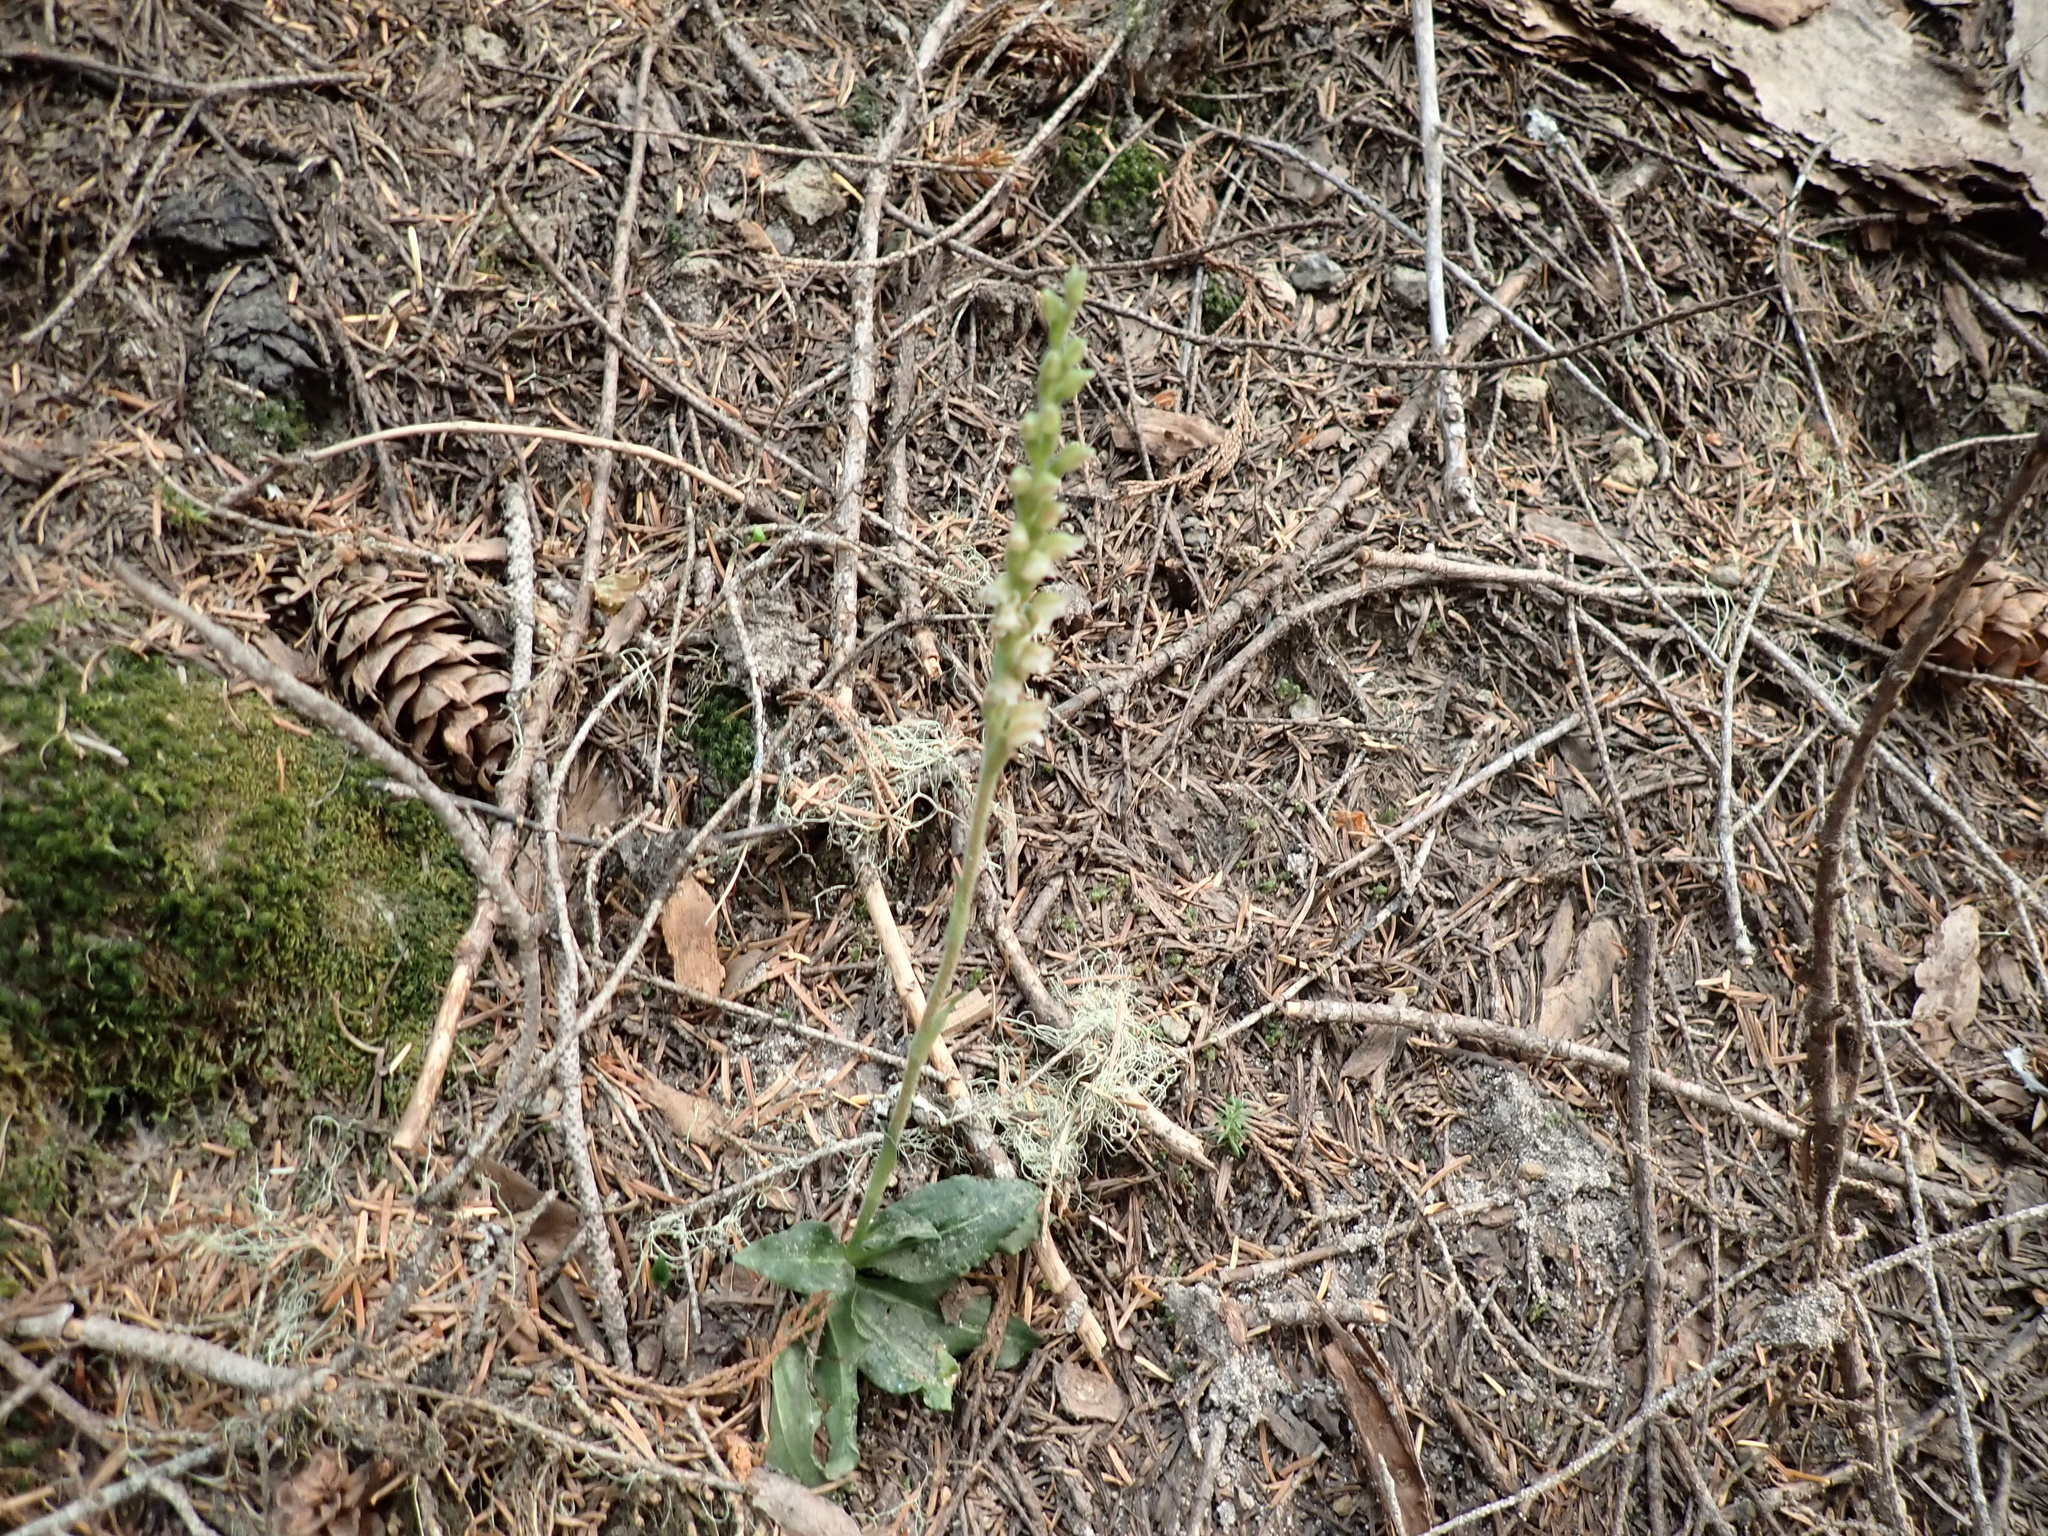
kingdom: Plantae
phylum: Tracheophyta
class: Liliopsida
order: Asparagales
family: Orchidaceae
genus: Goodyera
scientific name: Goodyera oblongifolia
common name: Giant rattlesnake-plantain
